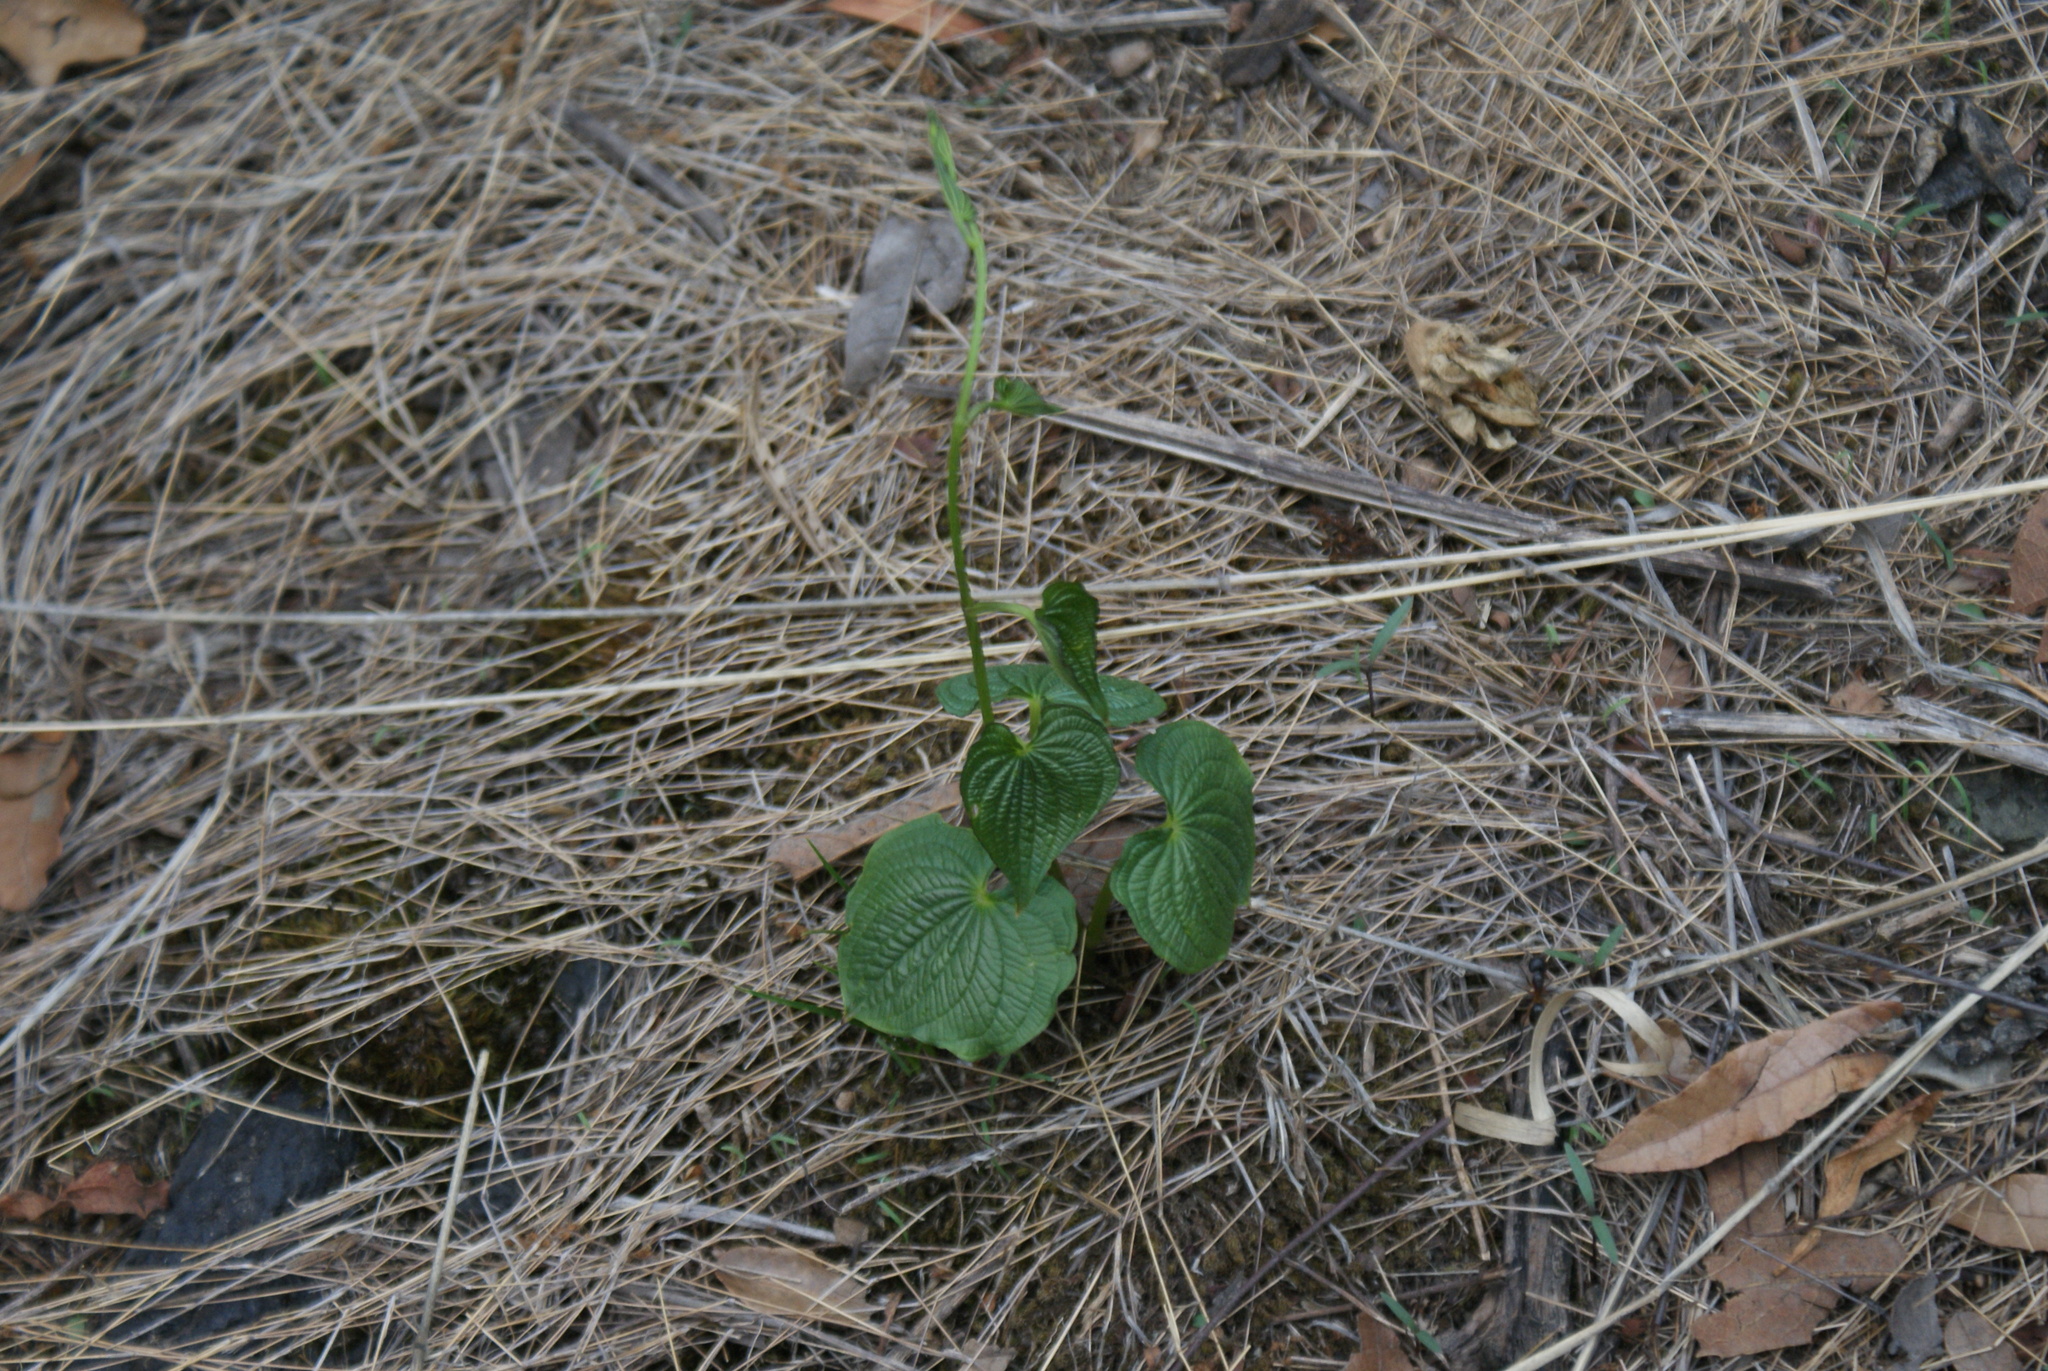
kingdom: Plantae
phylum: Tracheophyta
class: Liliopsida
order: Dioscoreales
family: Dioscoreaceae
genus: Dioscorea
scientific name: Dioscorea galeottiana
